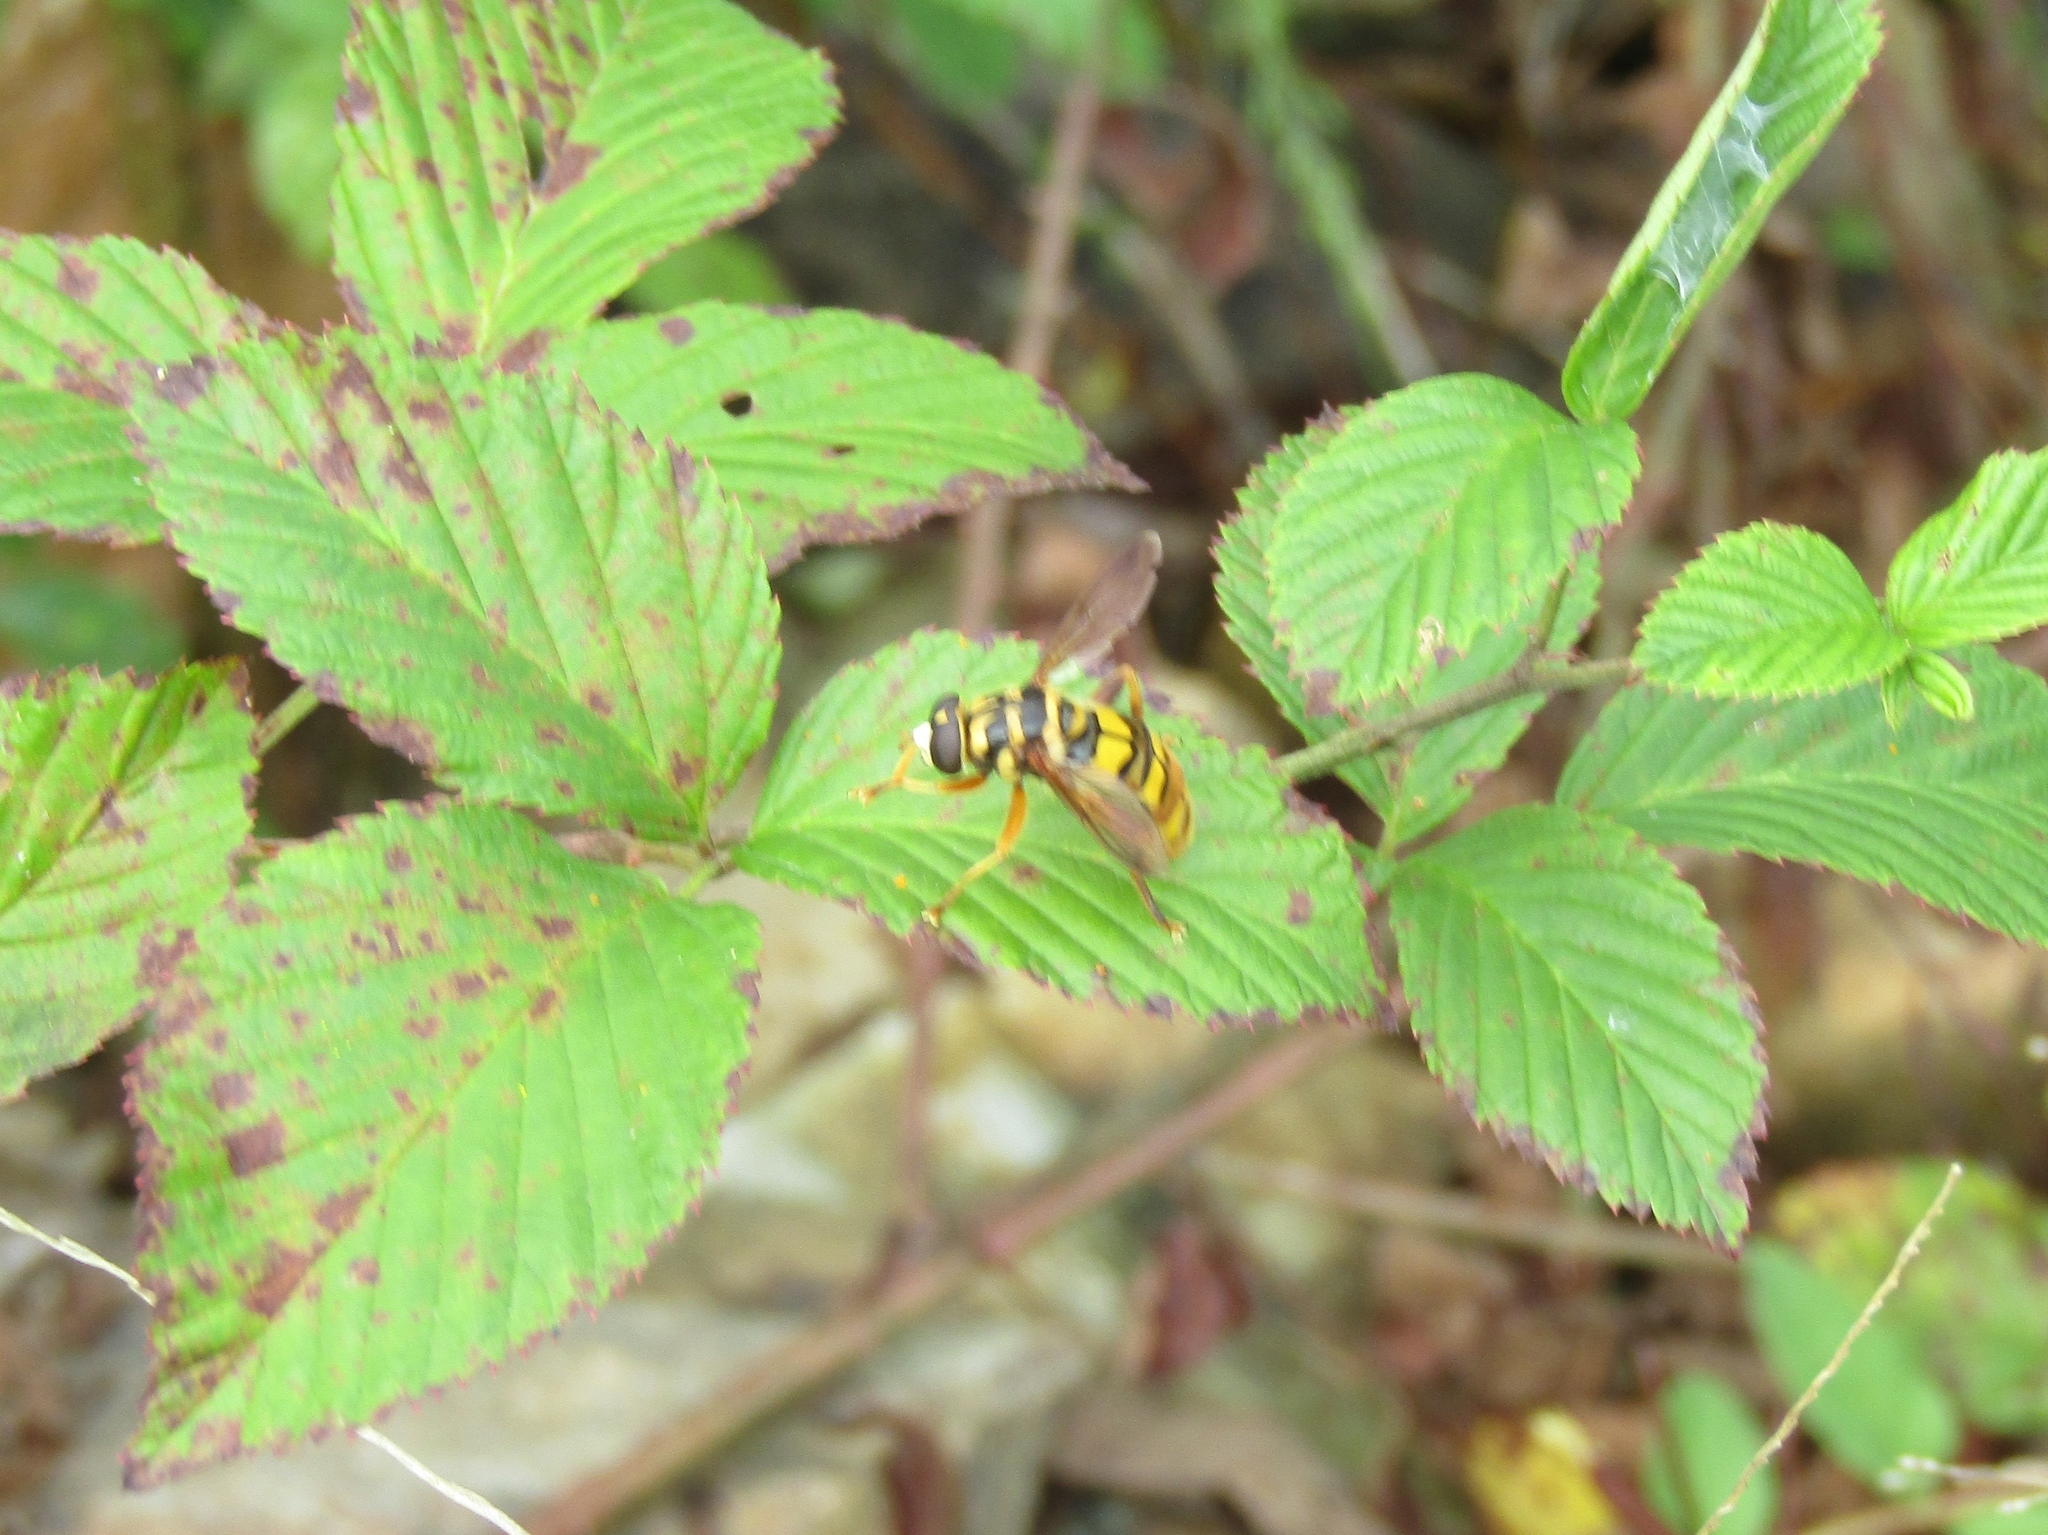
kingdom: Animalia
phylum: Arthropoda
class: Insecta
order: Diptera
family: Syrphidae
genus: Milesia
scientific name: Milesia virginiensis
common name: Virginia giant
